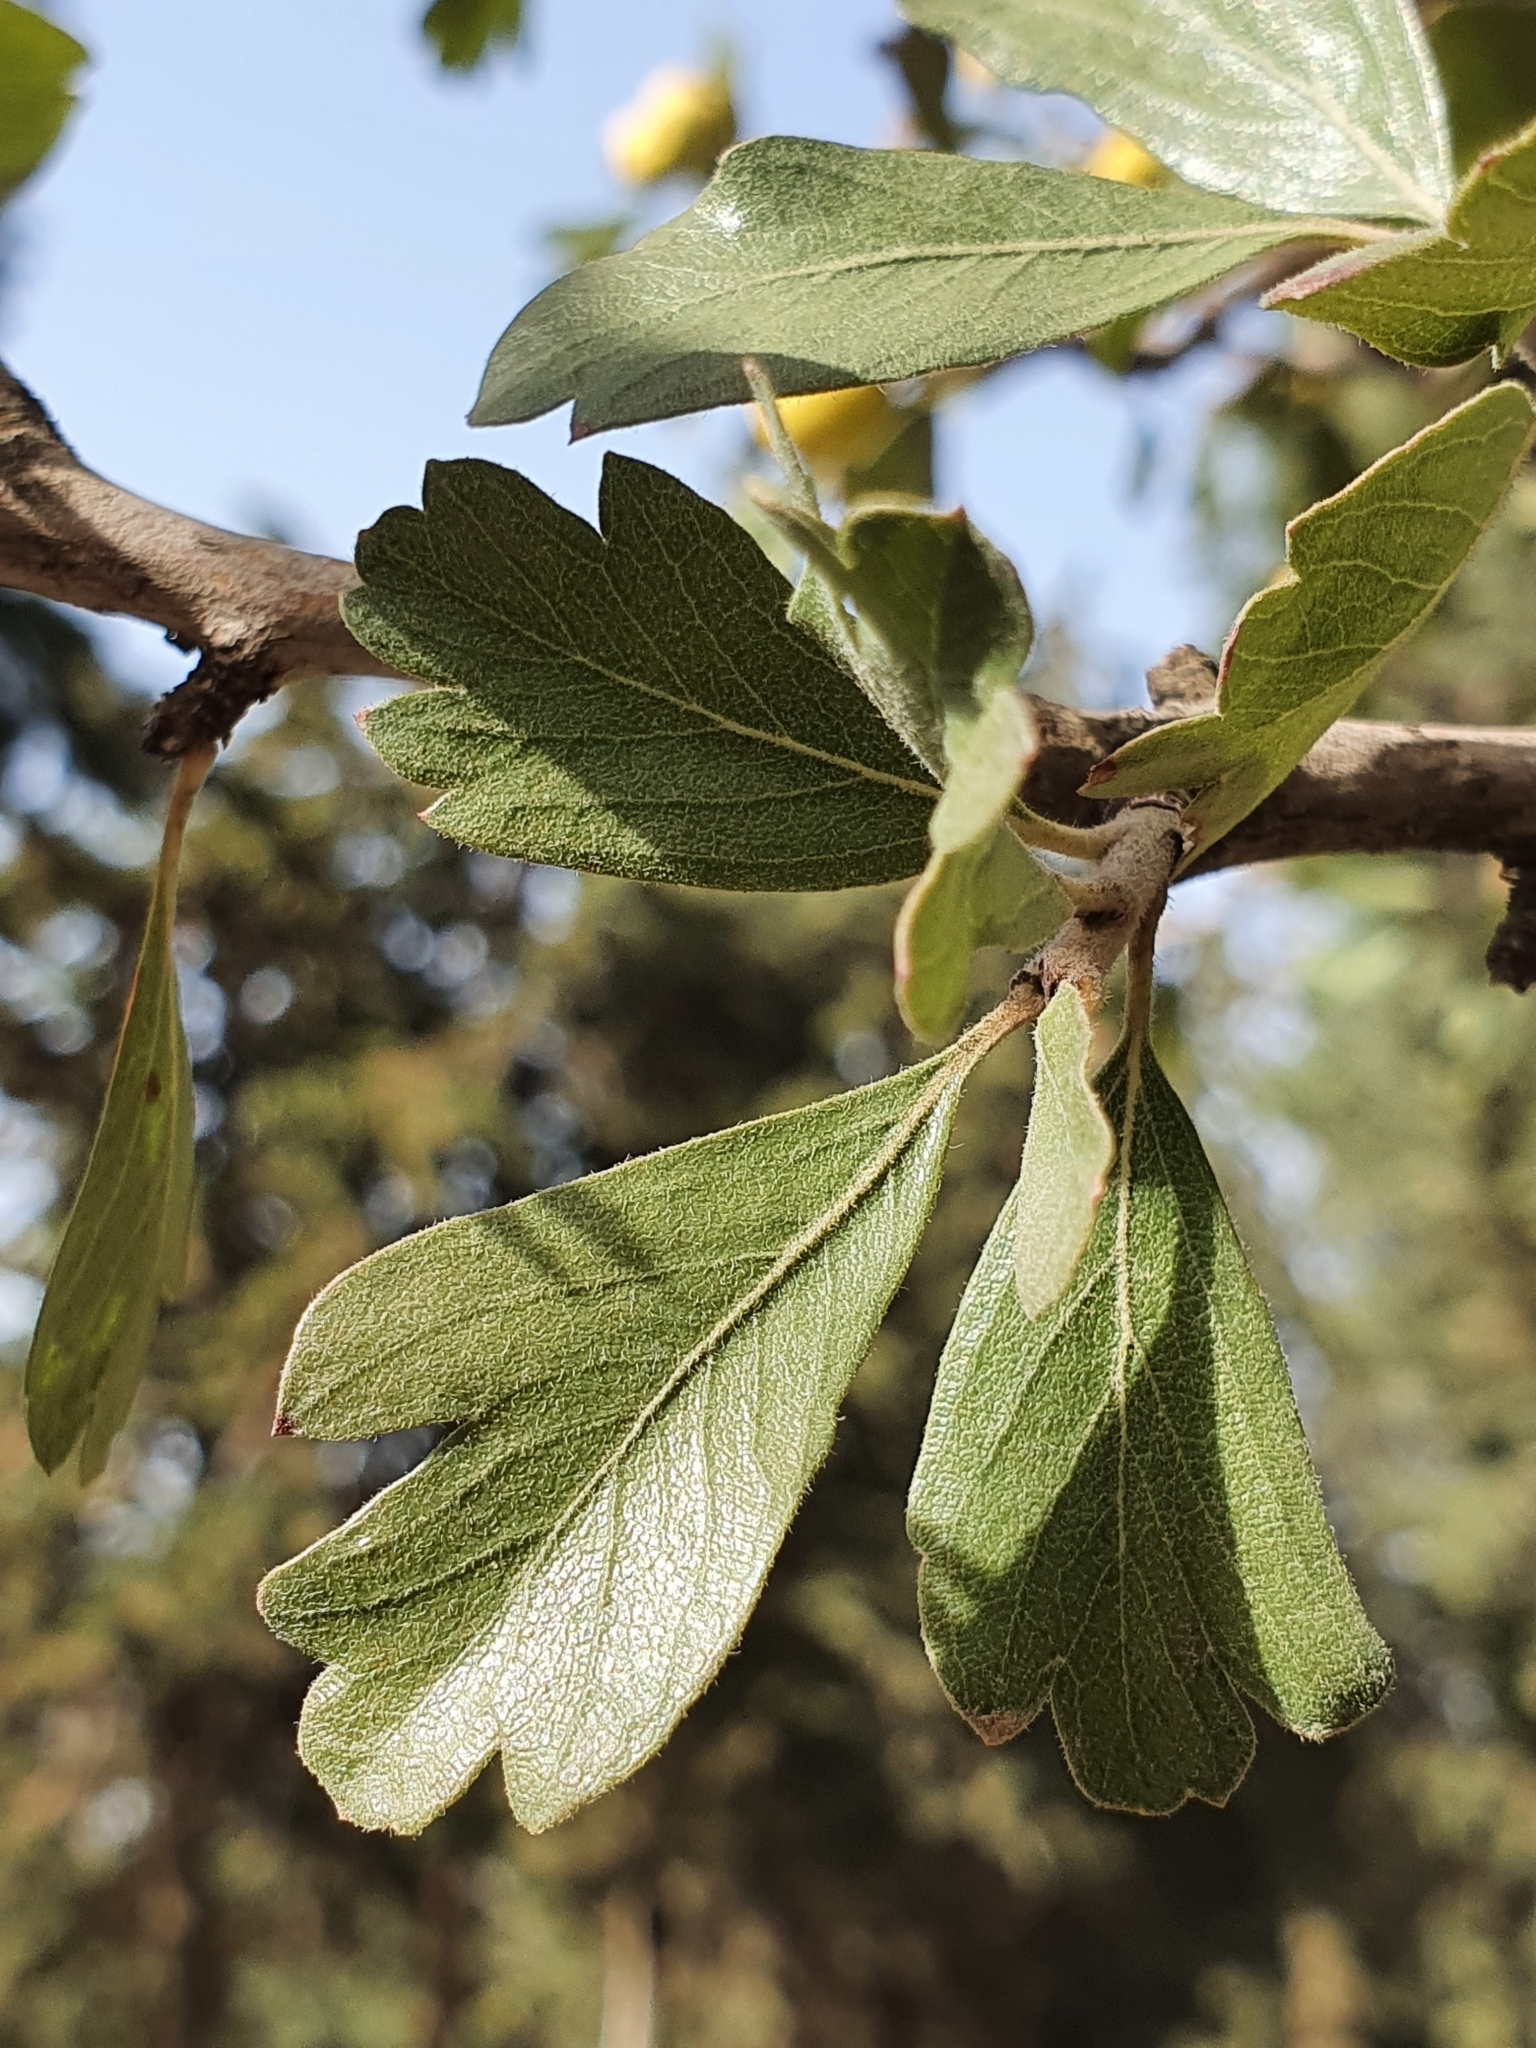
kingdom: Plantae
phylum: Tracheophyta
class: Magnoliopsida
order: Rosales
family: Rosaceae
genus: Crataegus
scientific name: Crataegus azarolus
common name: Azarole
